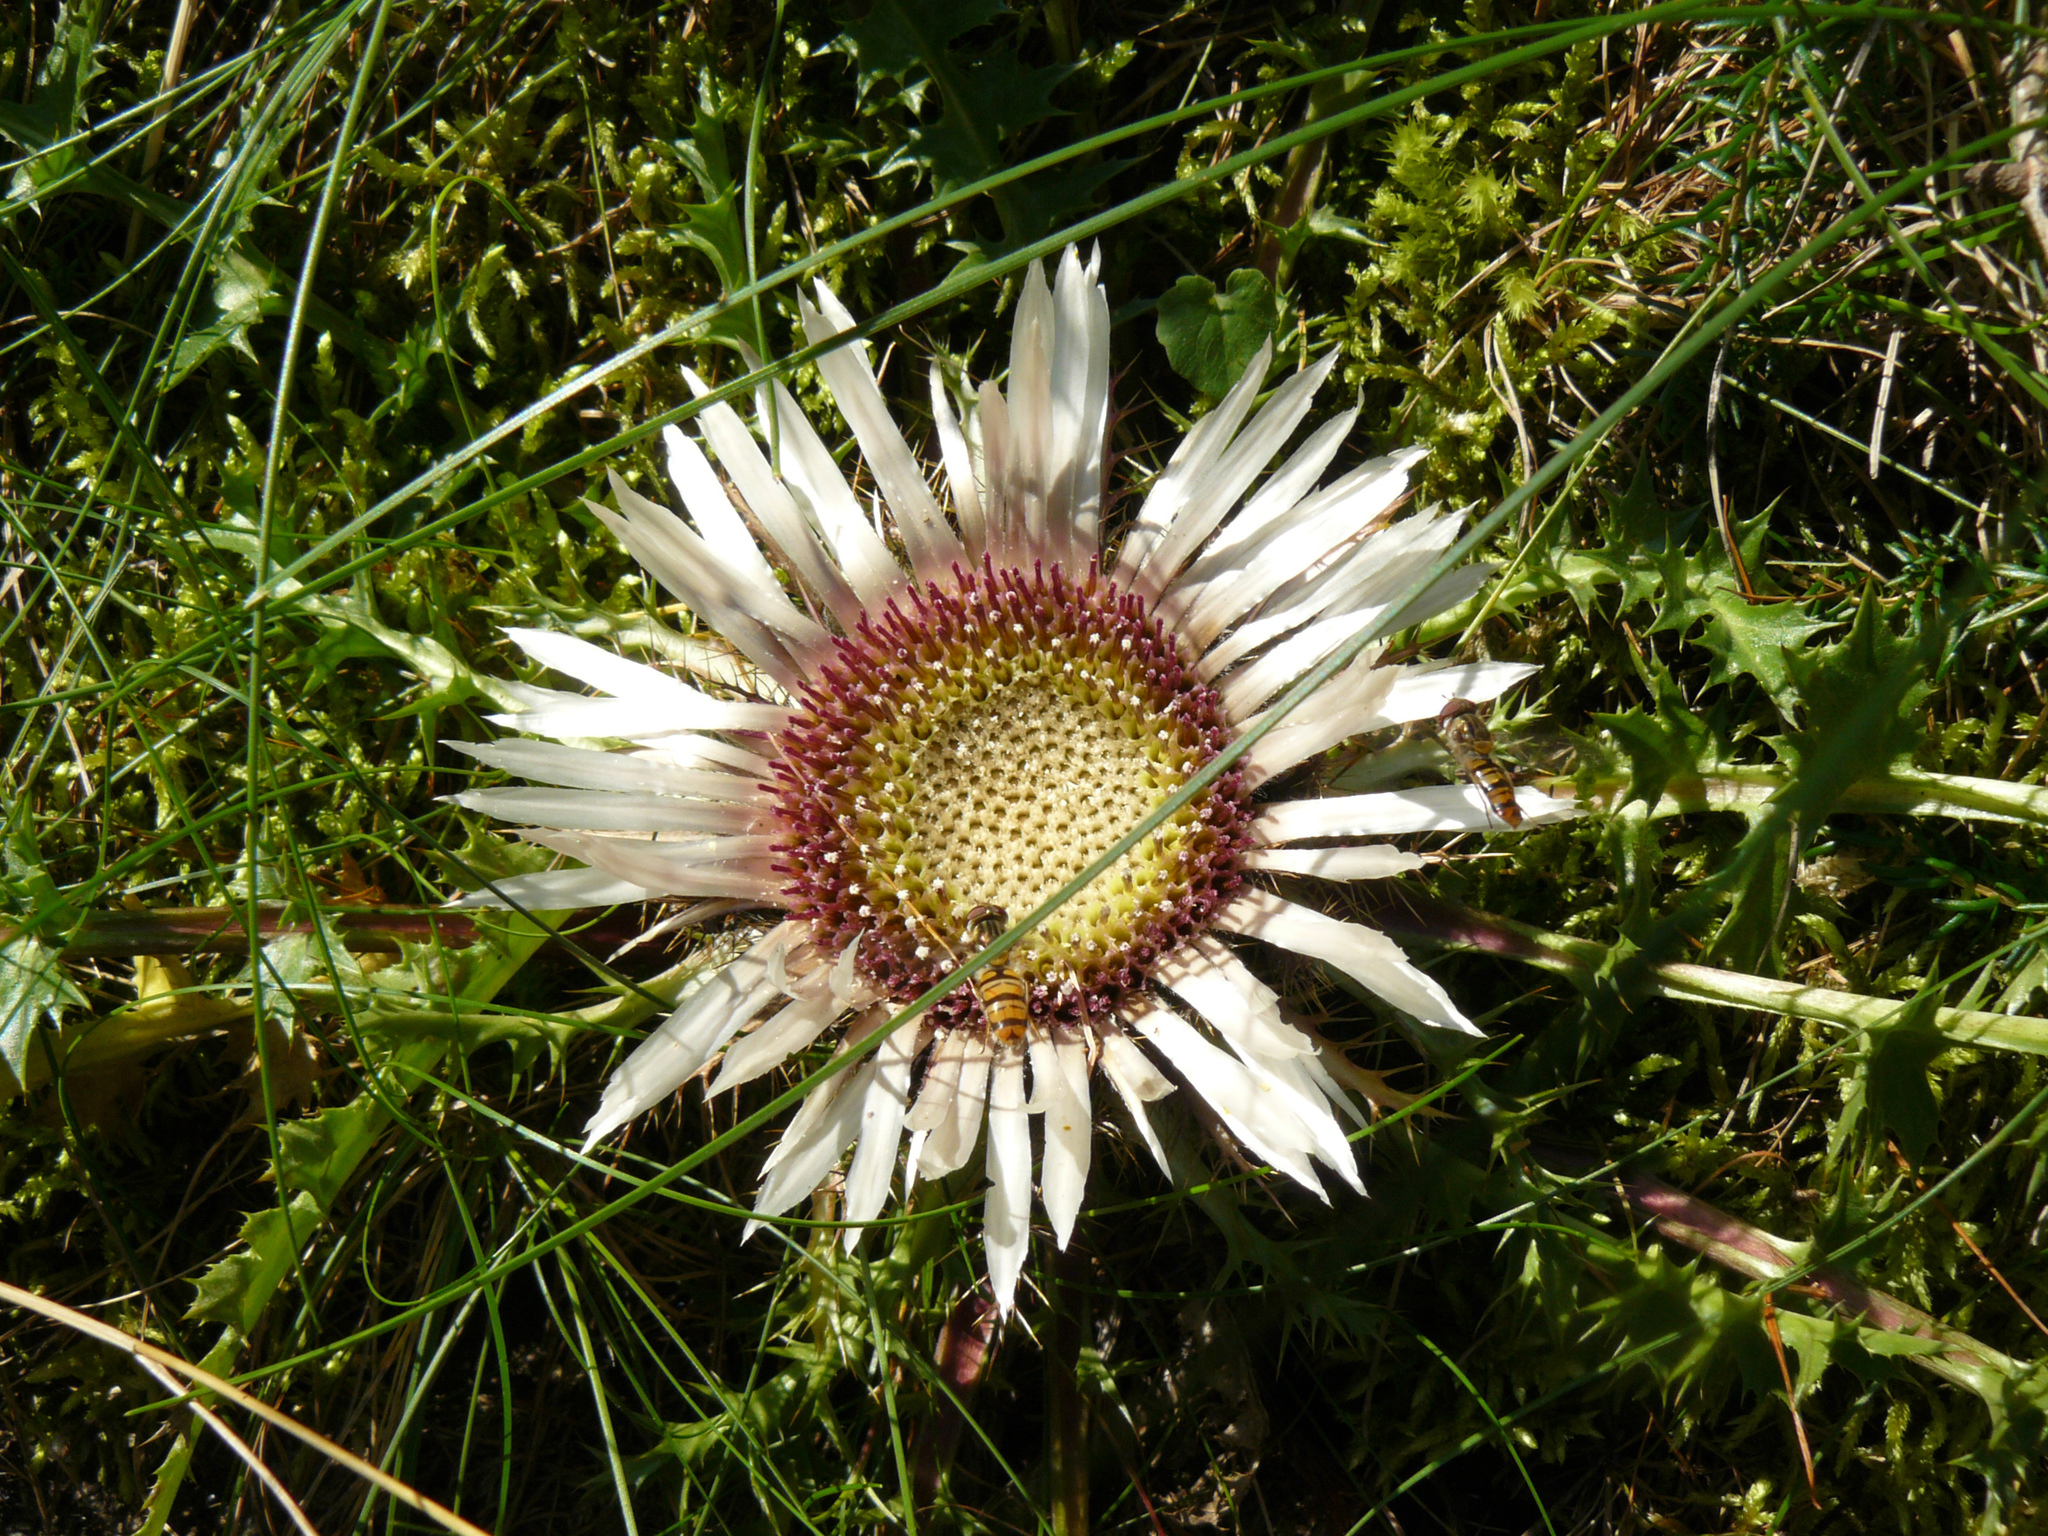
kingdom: Plantae
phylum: Tracheophyta
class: Magnoliopsida
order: Asterales
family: Asteraceae
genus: Carlina
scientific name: Carlina acaulis
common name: Stemless carline thistle
